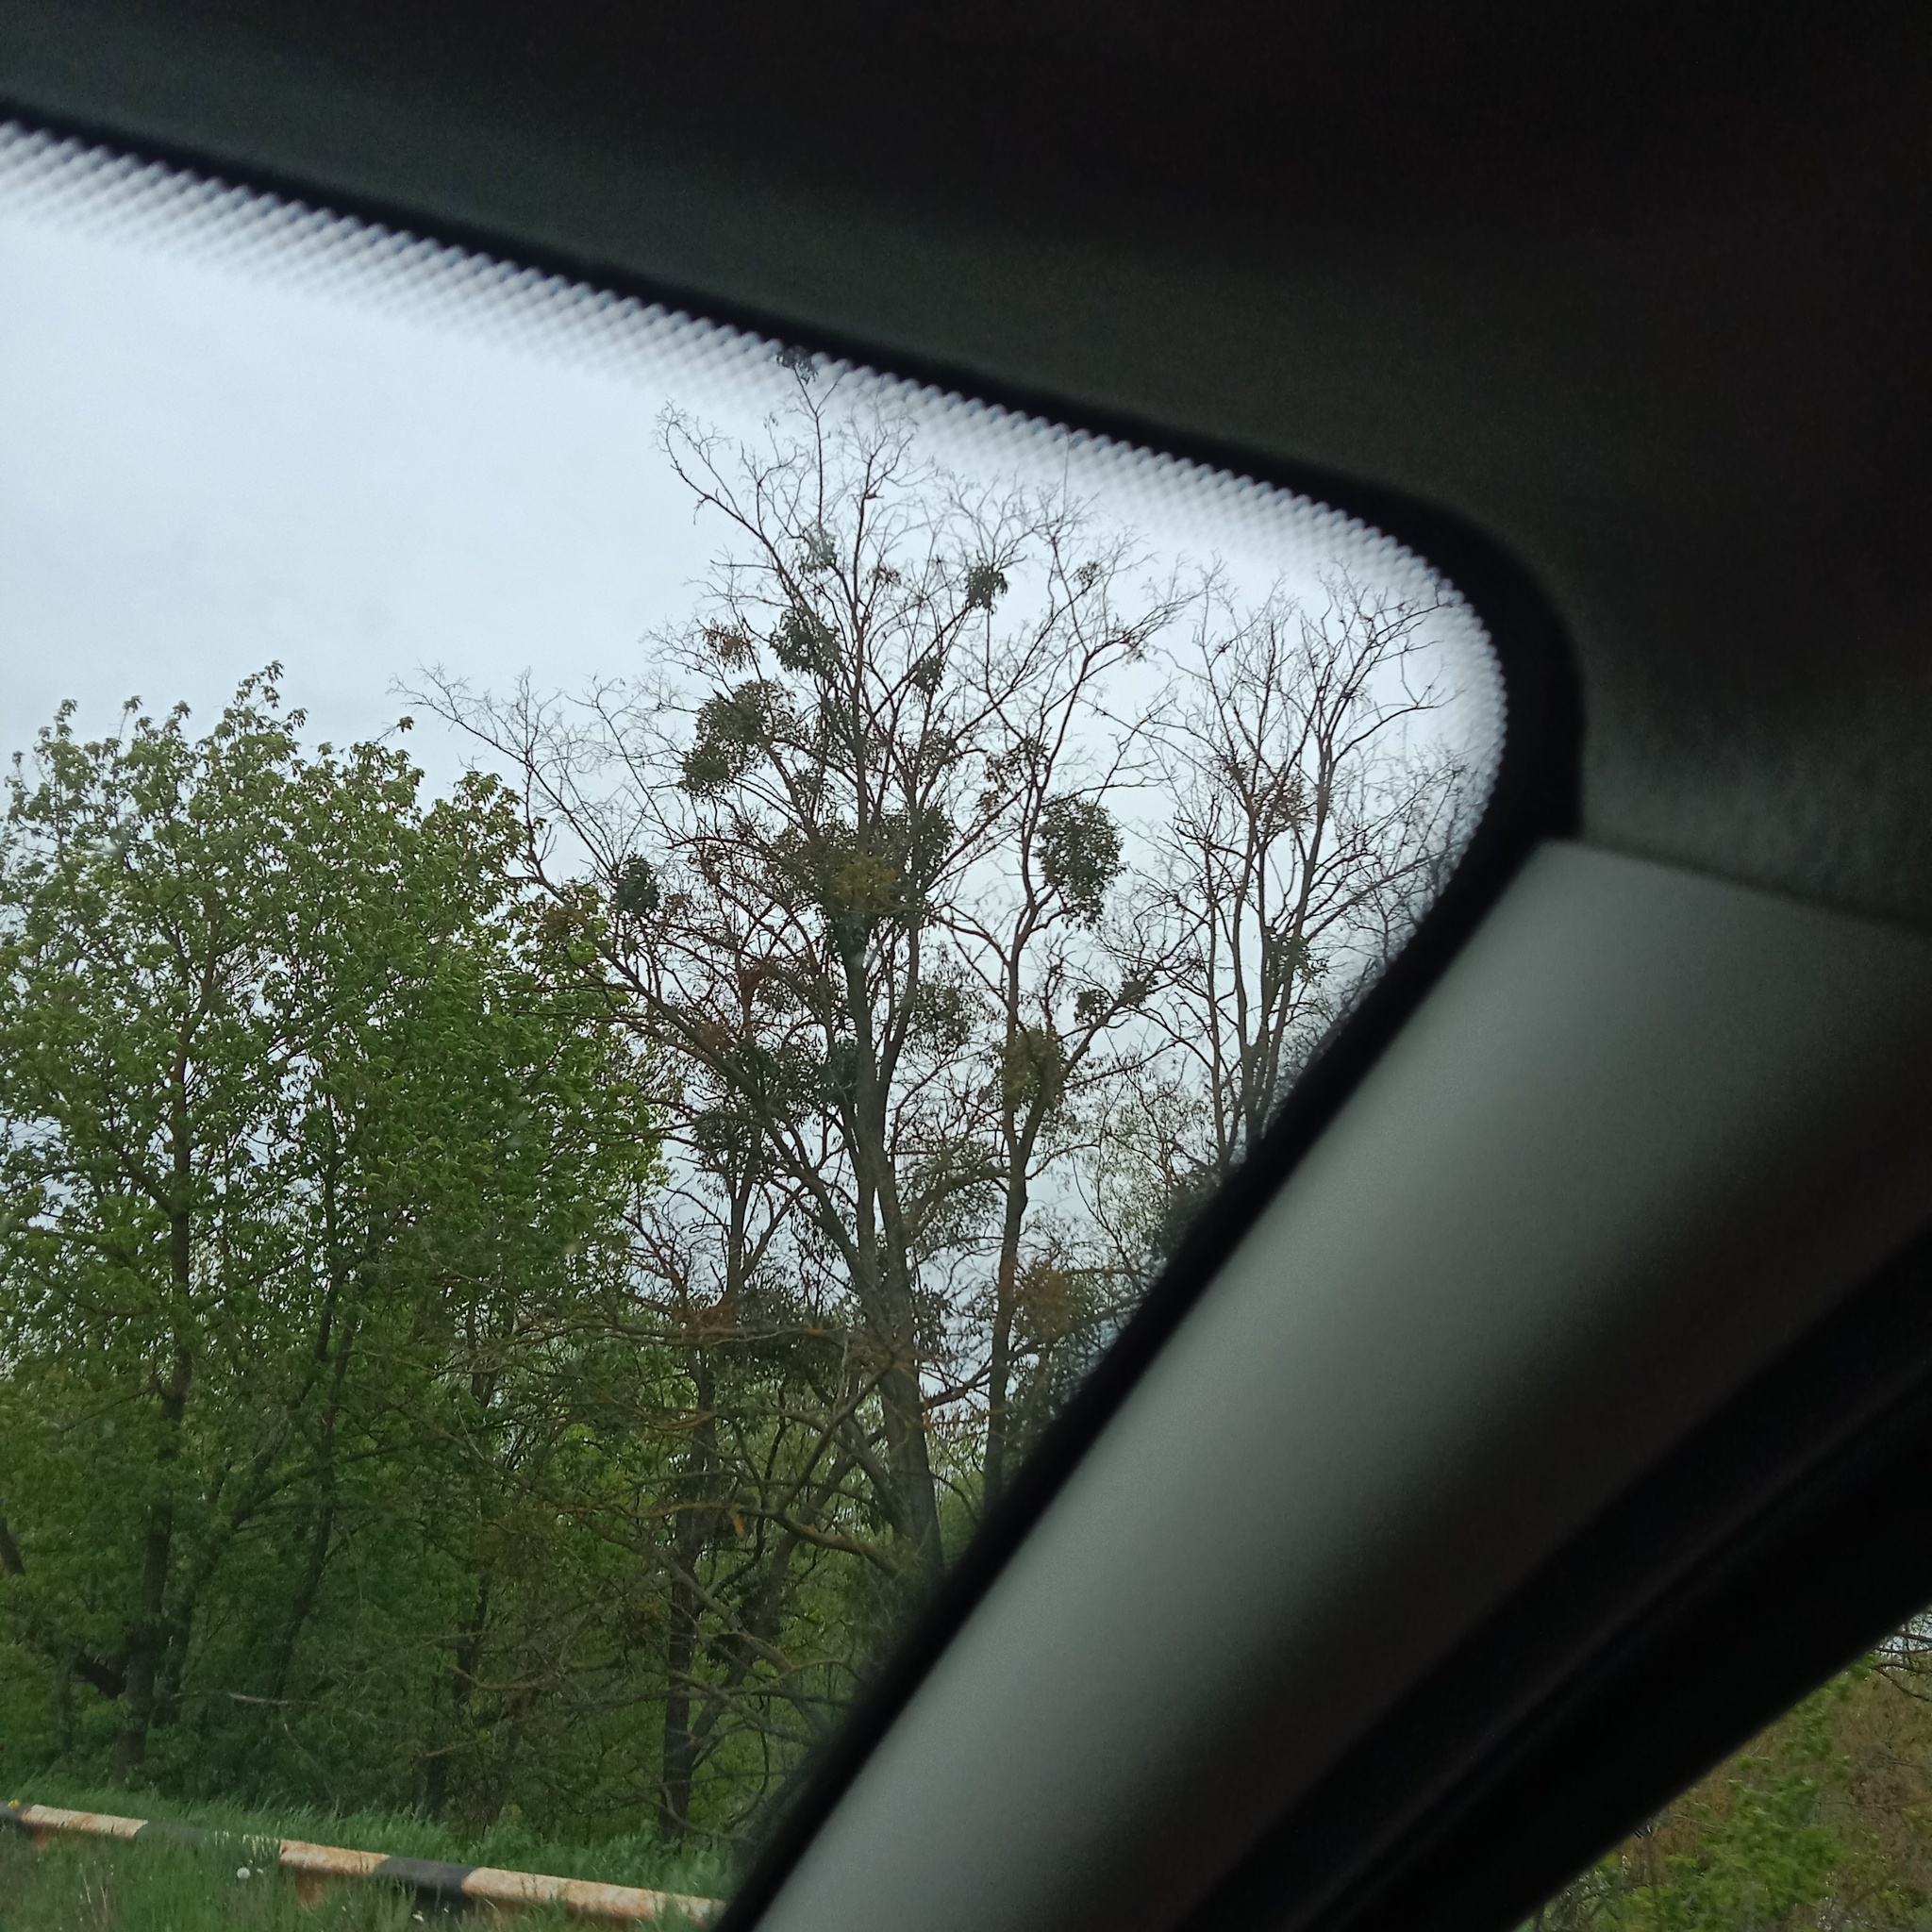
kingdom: Plantae
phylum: Tracheophyta
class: Magnoliopsida
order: Santalales
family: Viscaceae
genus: Viscum
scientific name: Viscum album
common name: Mistletoe
